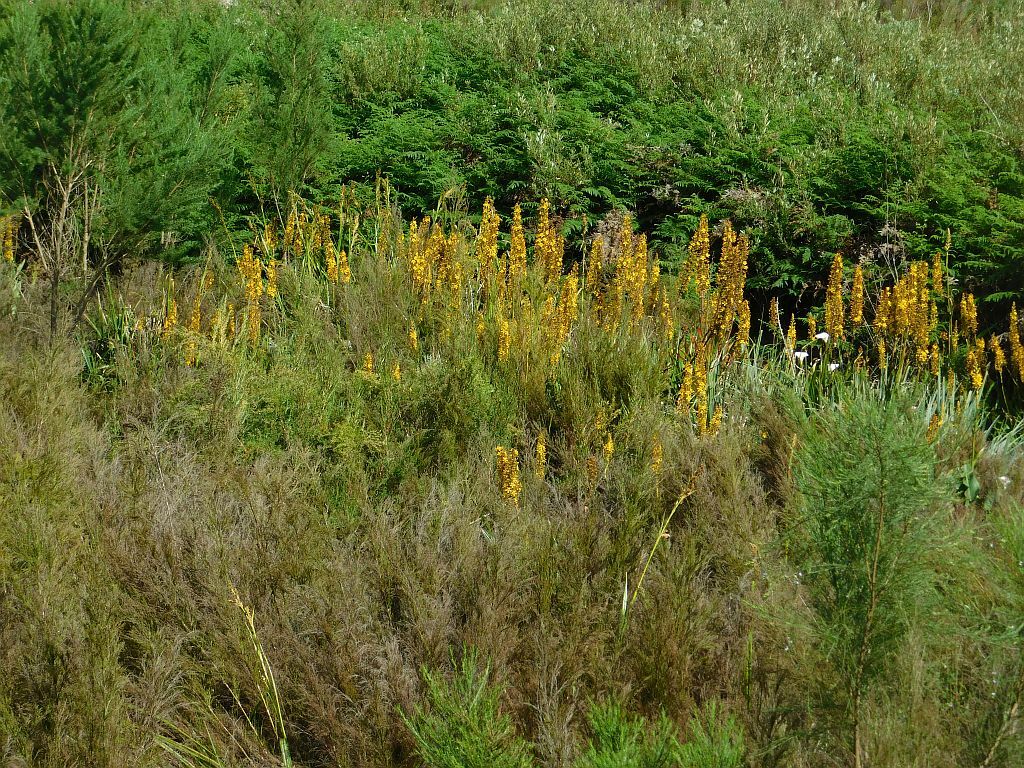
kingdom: Plantae
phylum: Tracheophyta
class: Liliopsida
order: Commelinales
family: Haemodoraceae
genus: Wachendorfia
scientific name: Wachendorfia thyrsiflora
